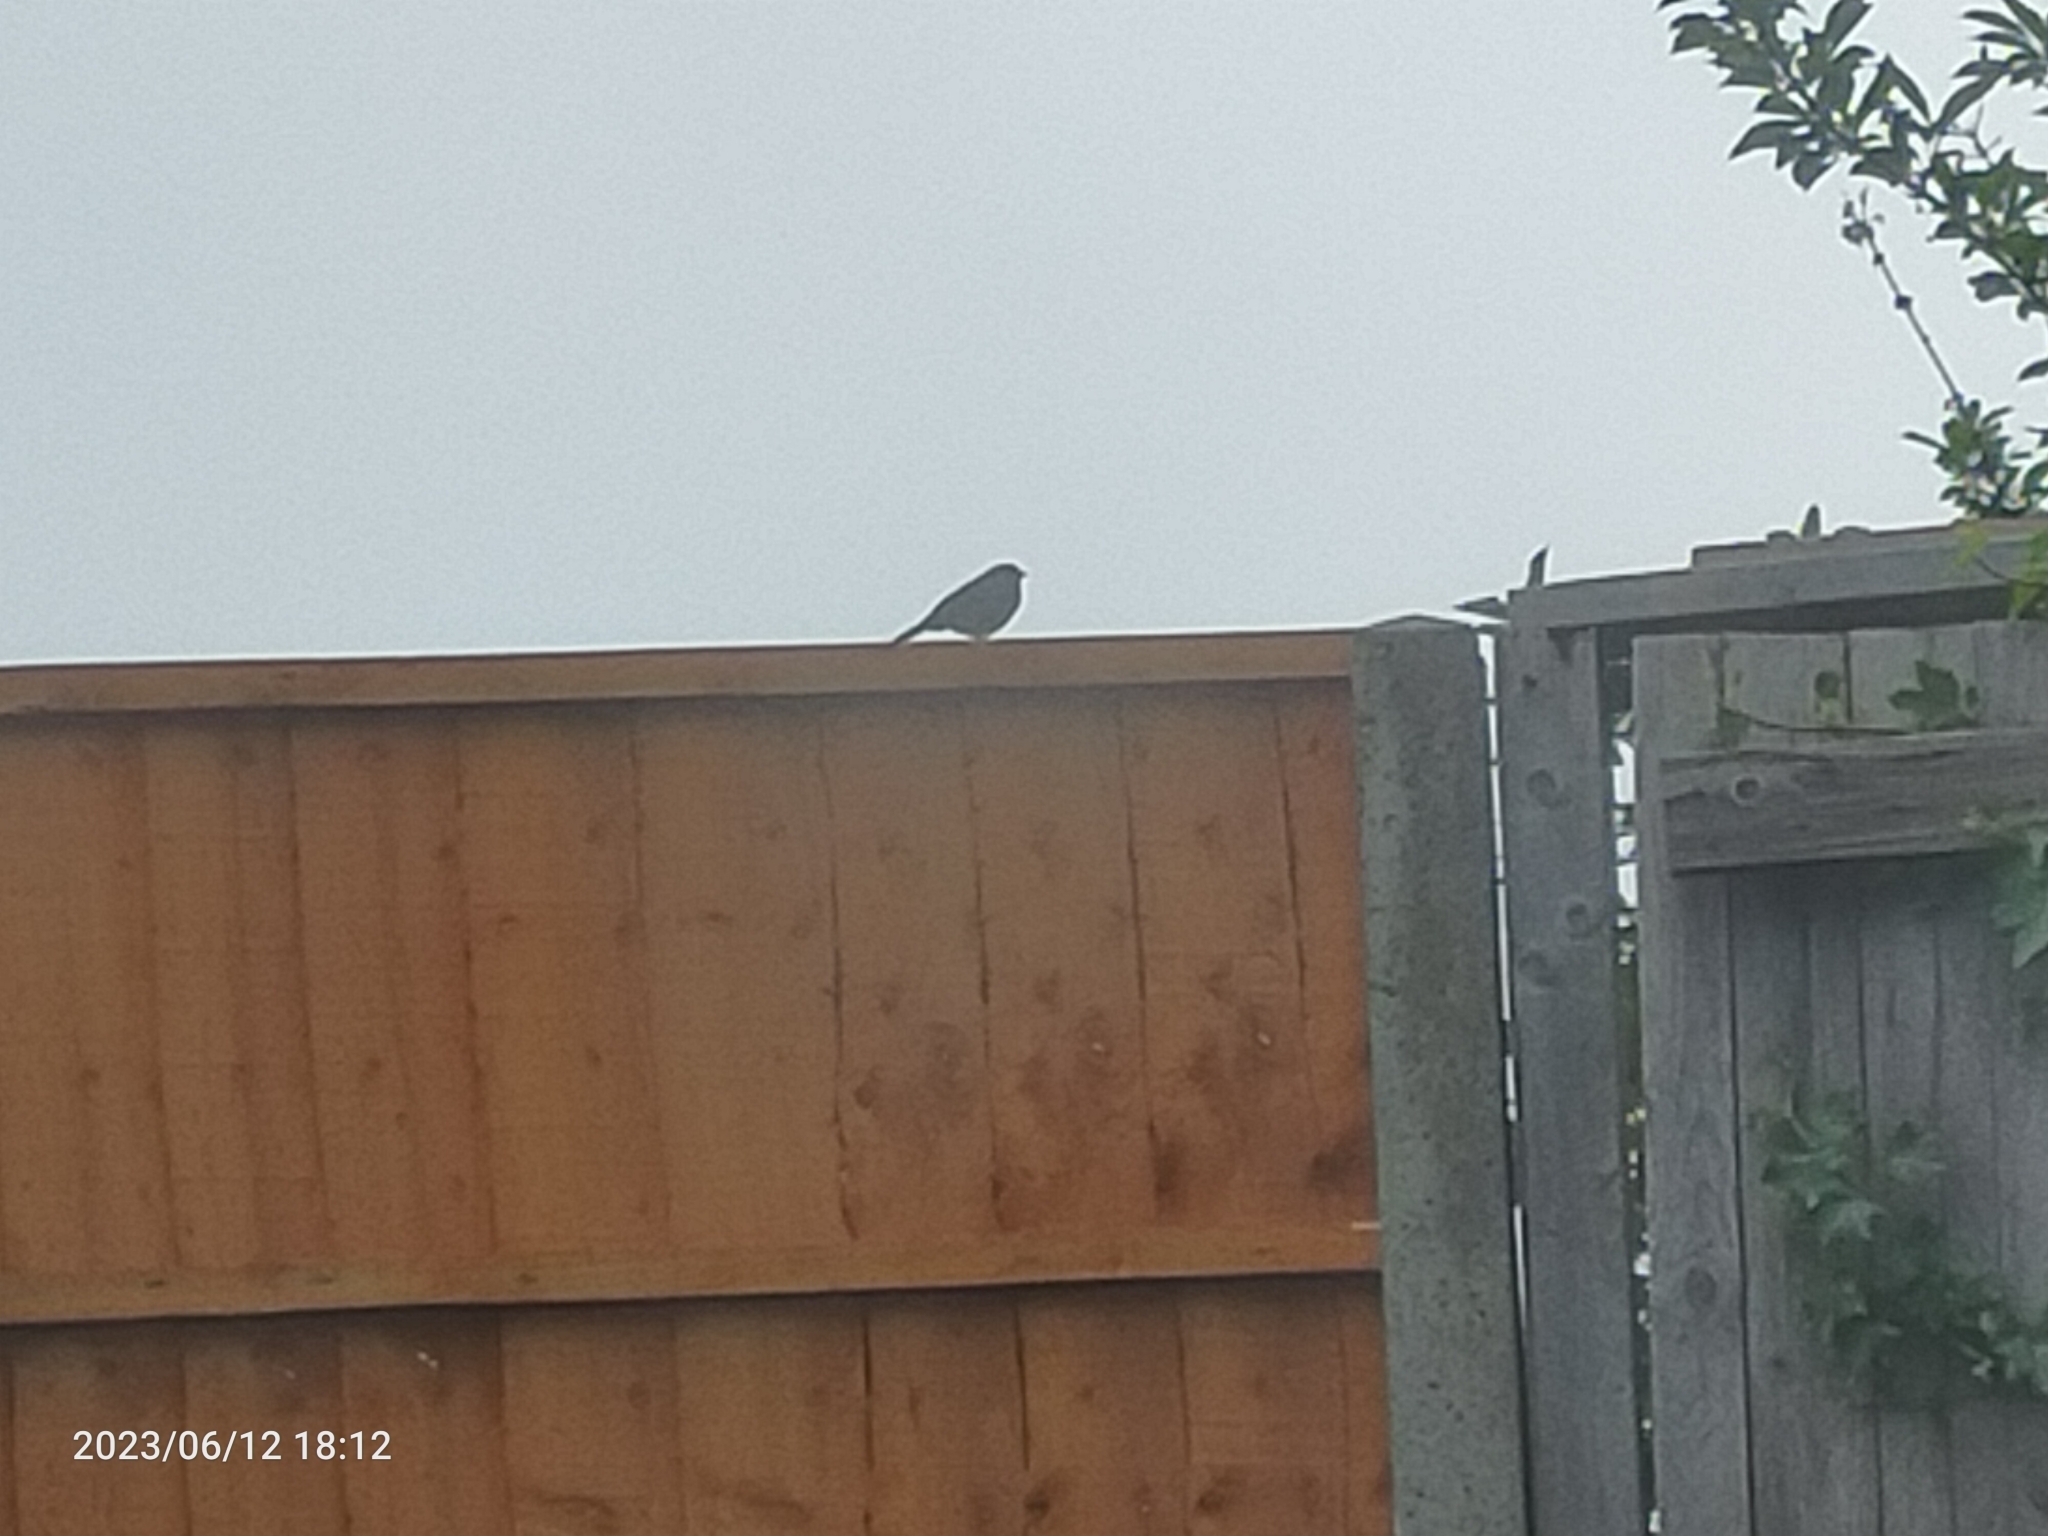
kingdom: Animalia
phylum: Chordata
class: Aves
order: Passeriformes
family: Passeridae
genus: Passer
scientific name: Passer domesticus
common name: House sparrow
